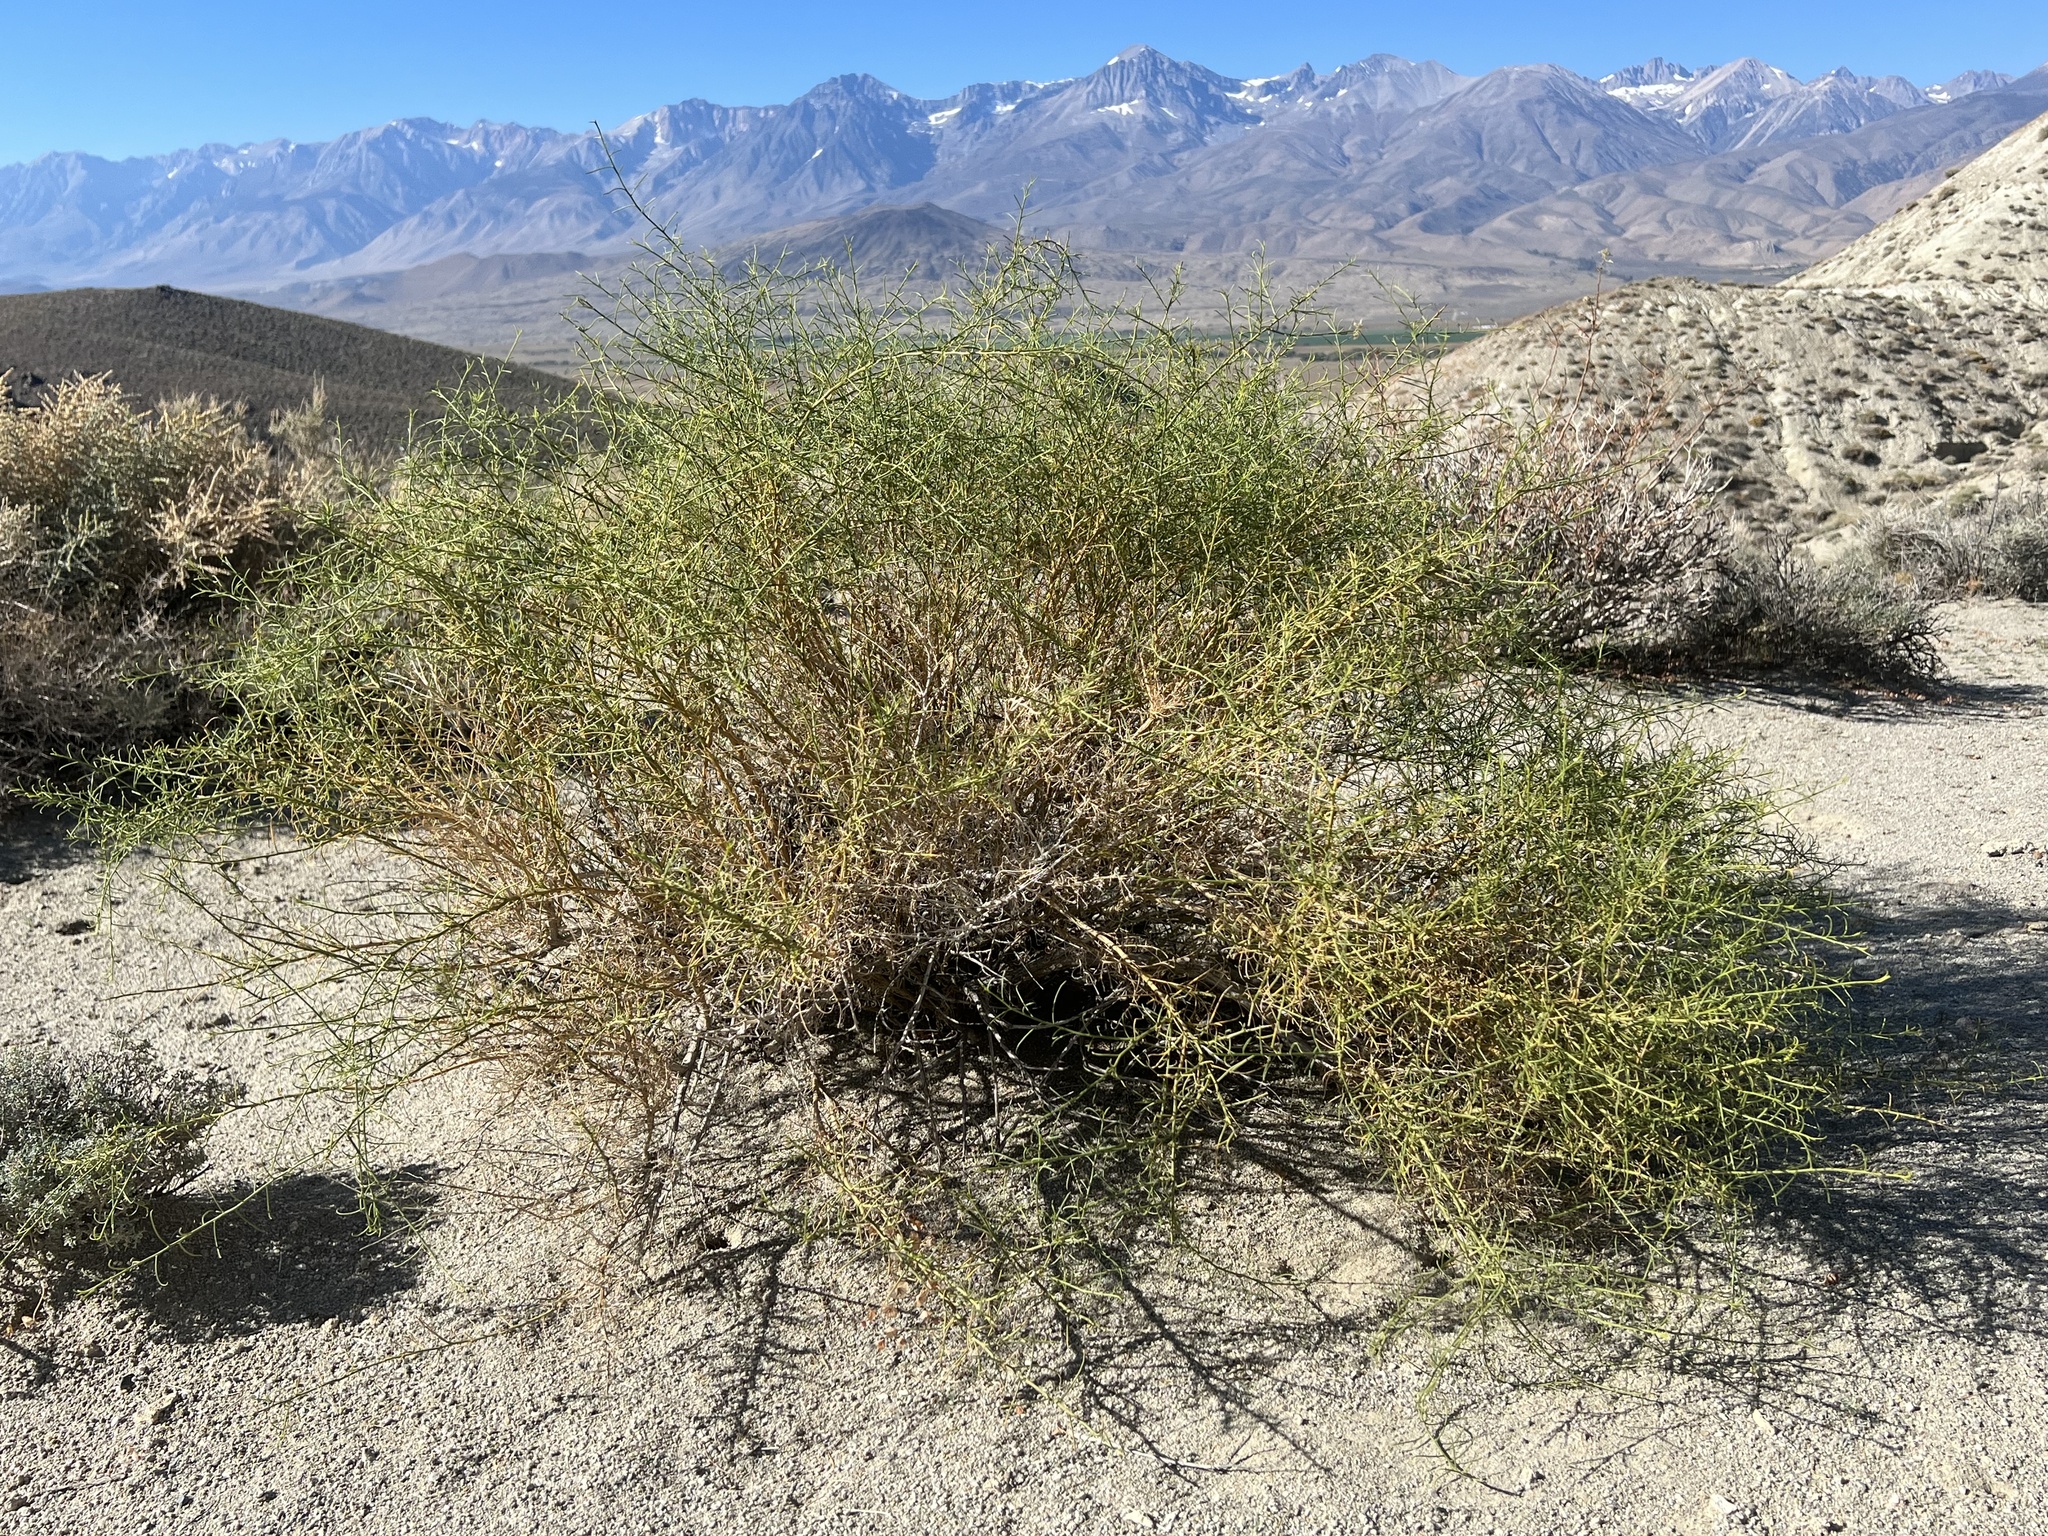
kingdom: Plantae
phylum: Tracheophyta
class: Magnoliopsida
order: Asterales
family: Asteraceae
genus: Ambrosia
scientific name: Ambrosia salsola
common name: Burrobrush
